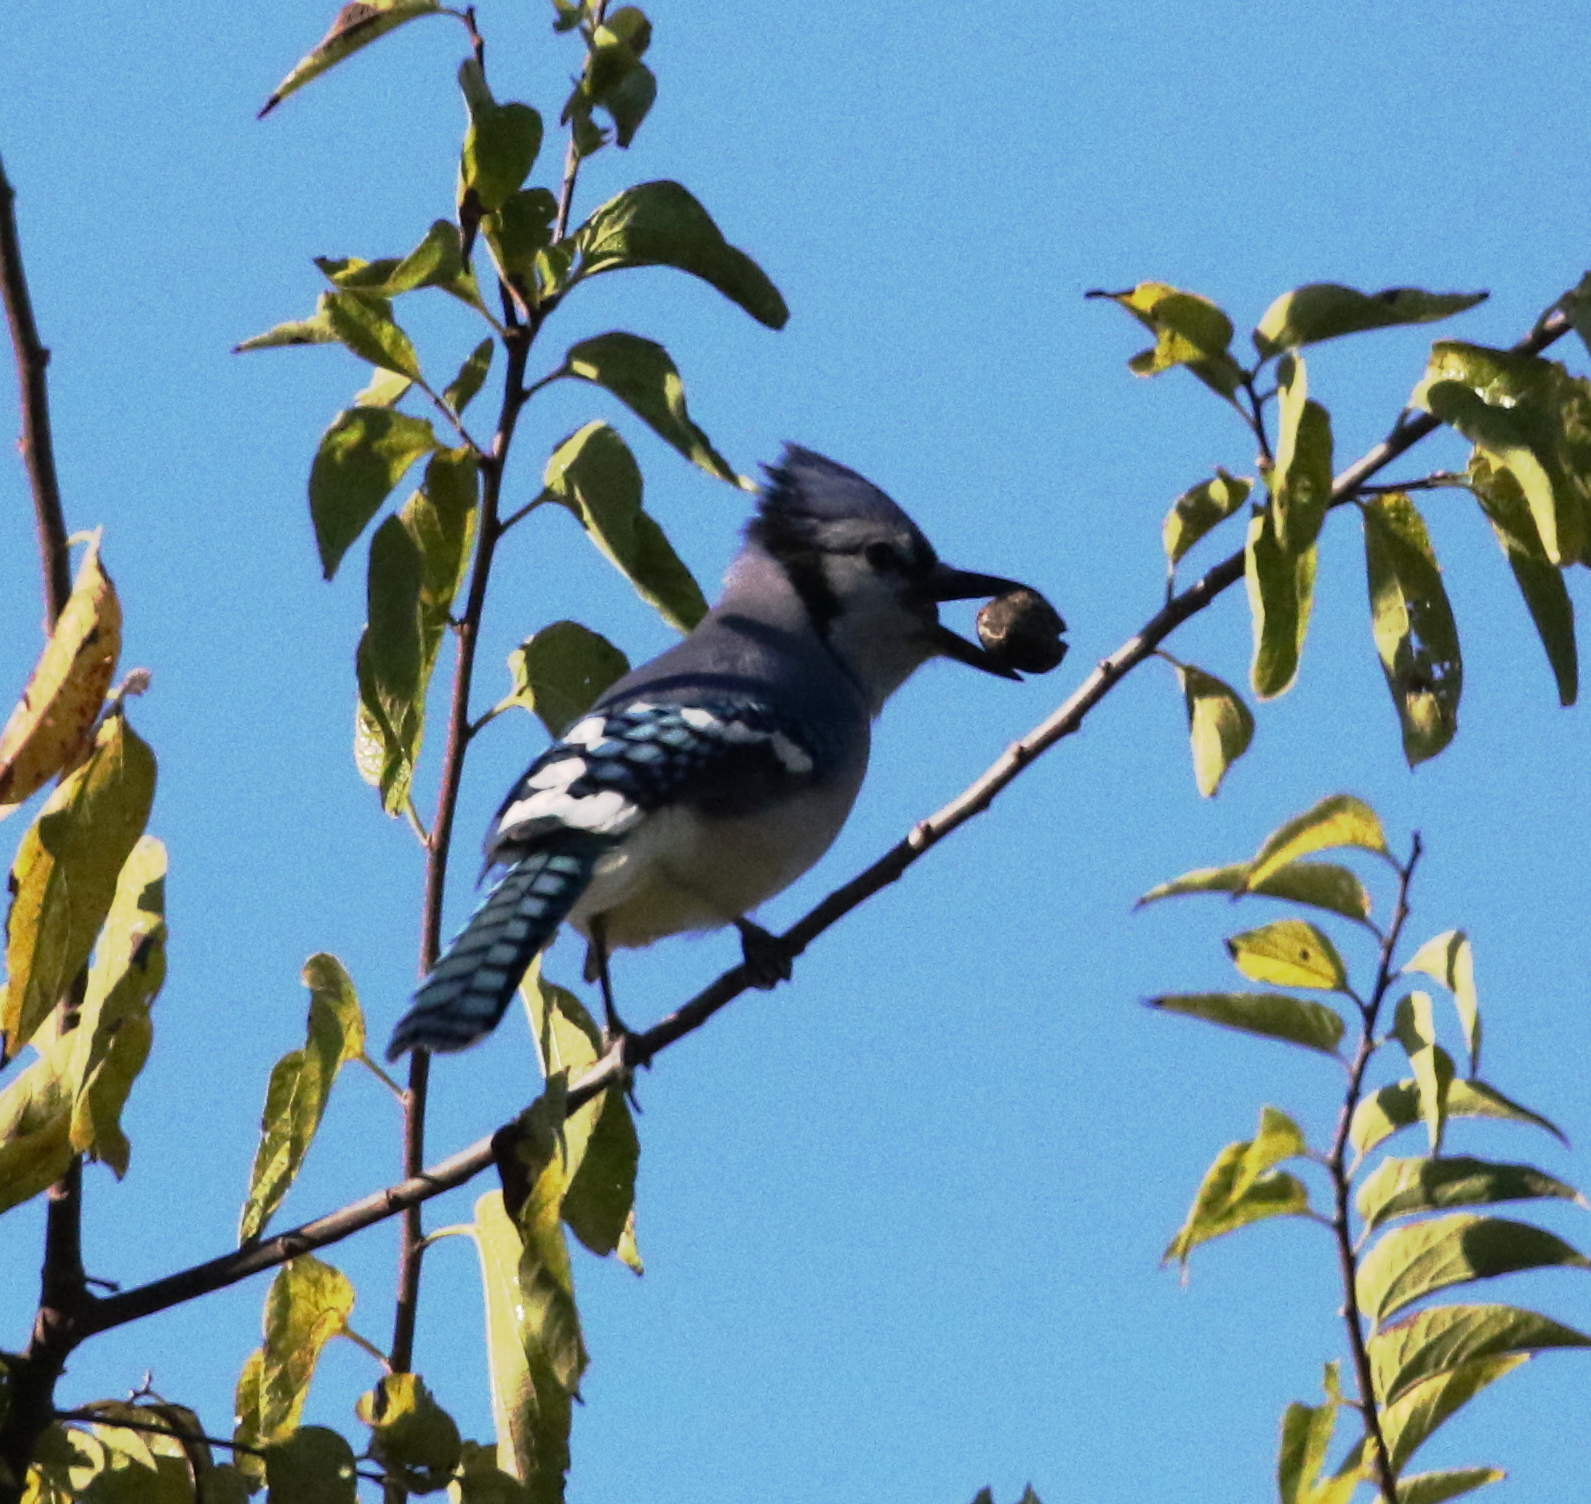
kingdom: Animalia
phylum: Chordata
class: Aves
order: Passeriformes
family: Corvidae
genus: Cyanocitta
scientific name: Cyanocitta cristata
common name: Blue jay
